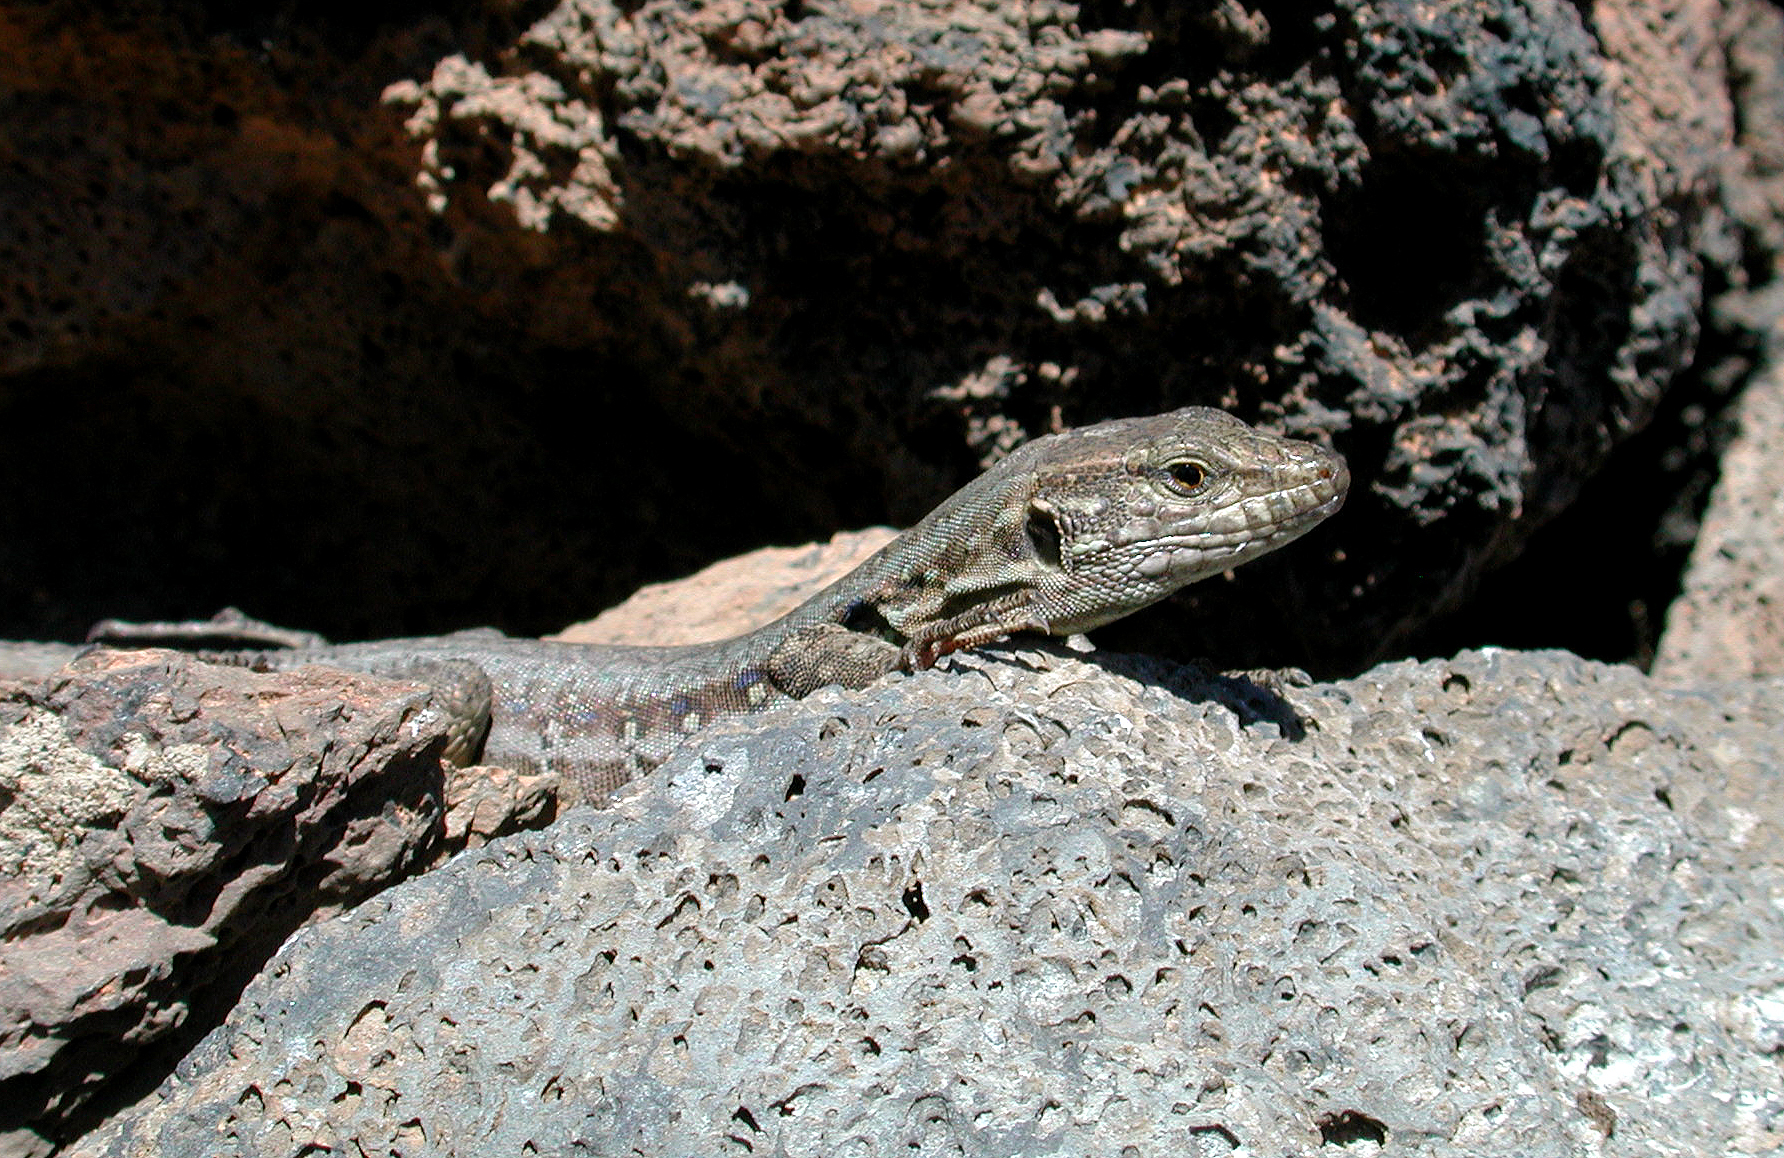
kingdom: Animalia
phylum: Chordata
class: Squamata
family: Lacertidae
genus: Gallotia
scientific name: Gallotia galloti
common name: Gallot's lizard
